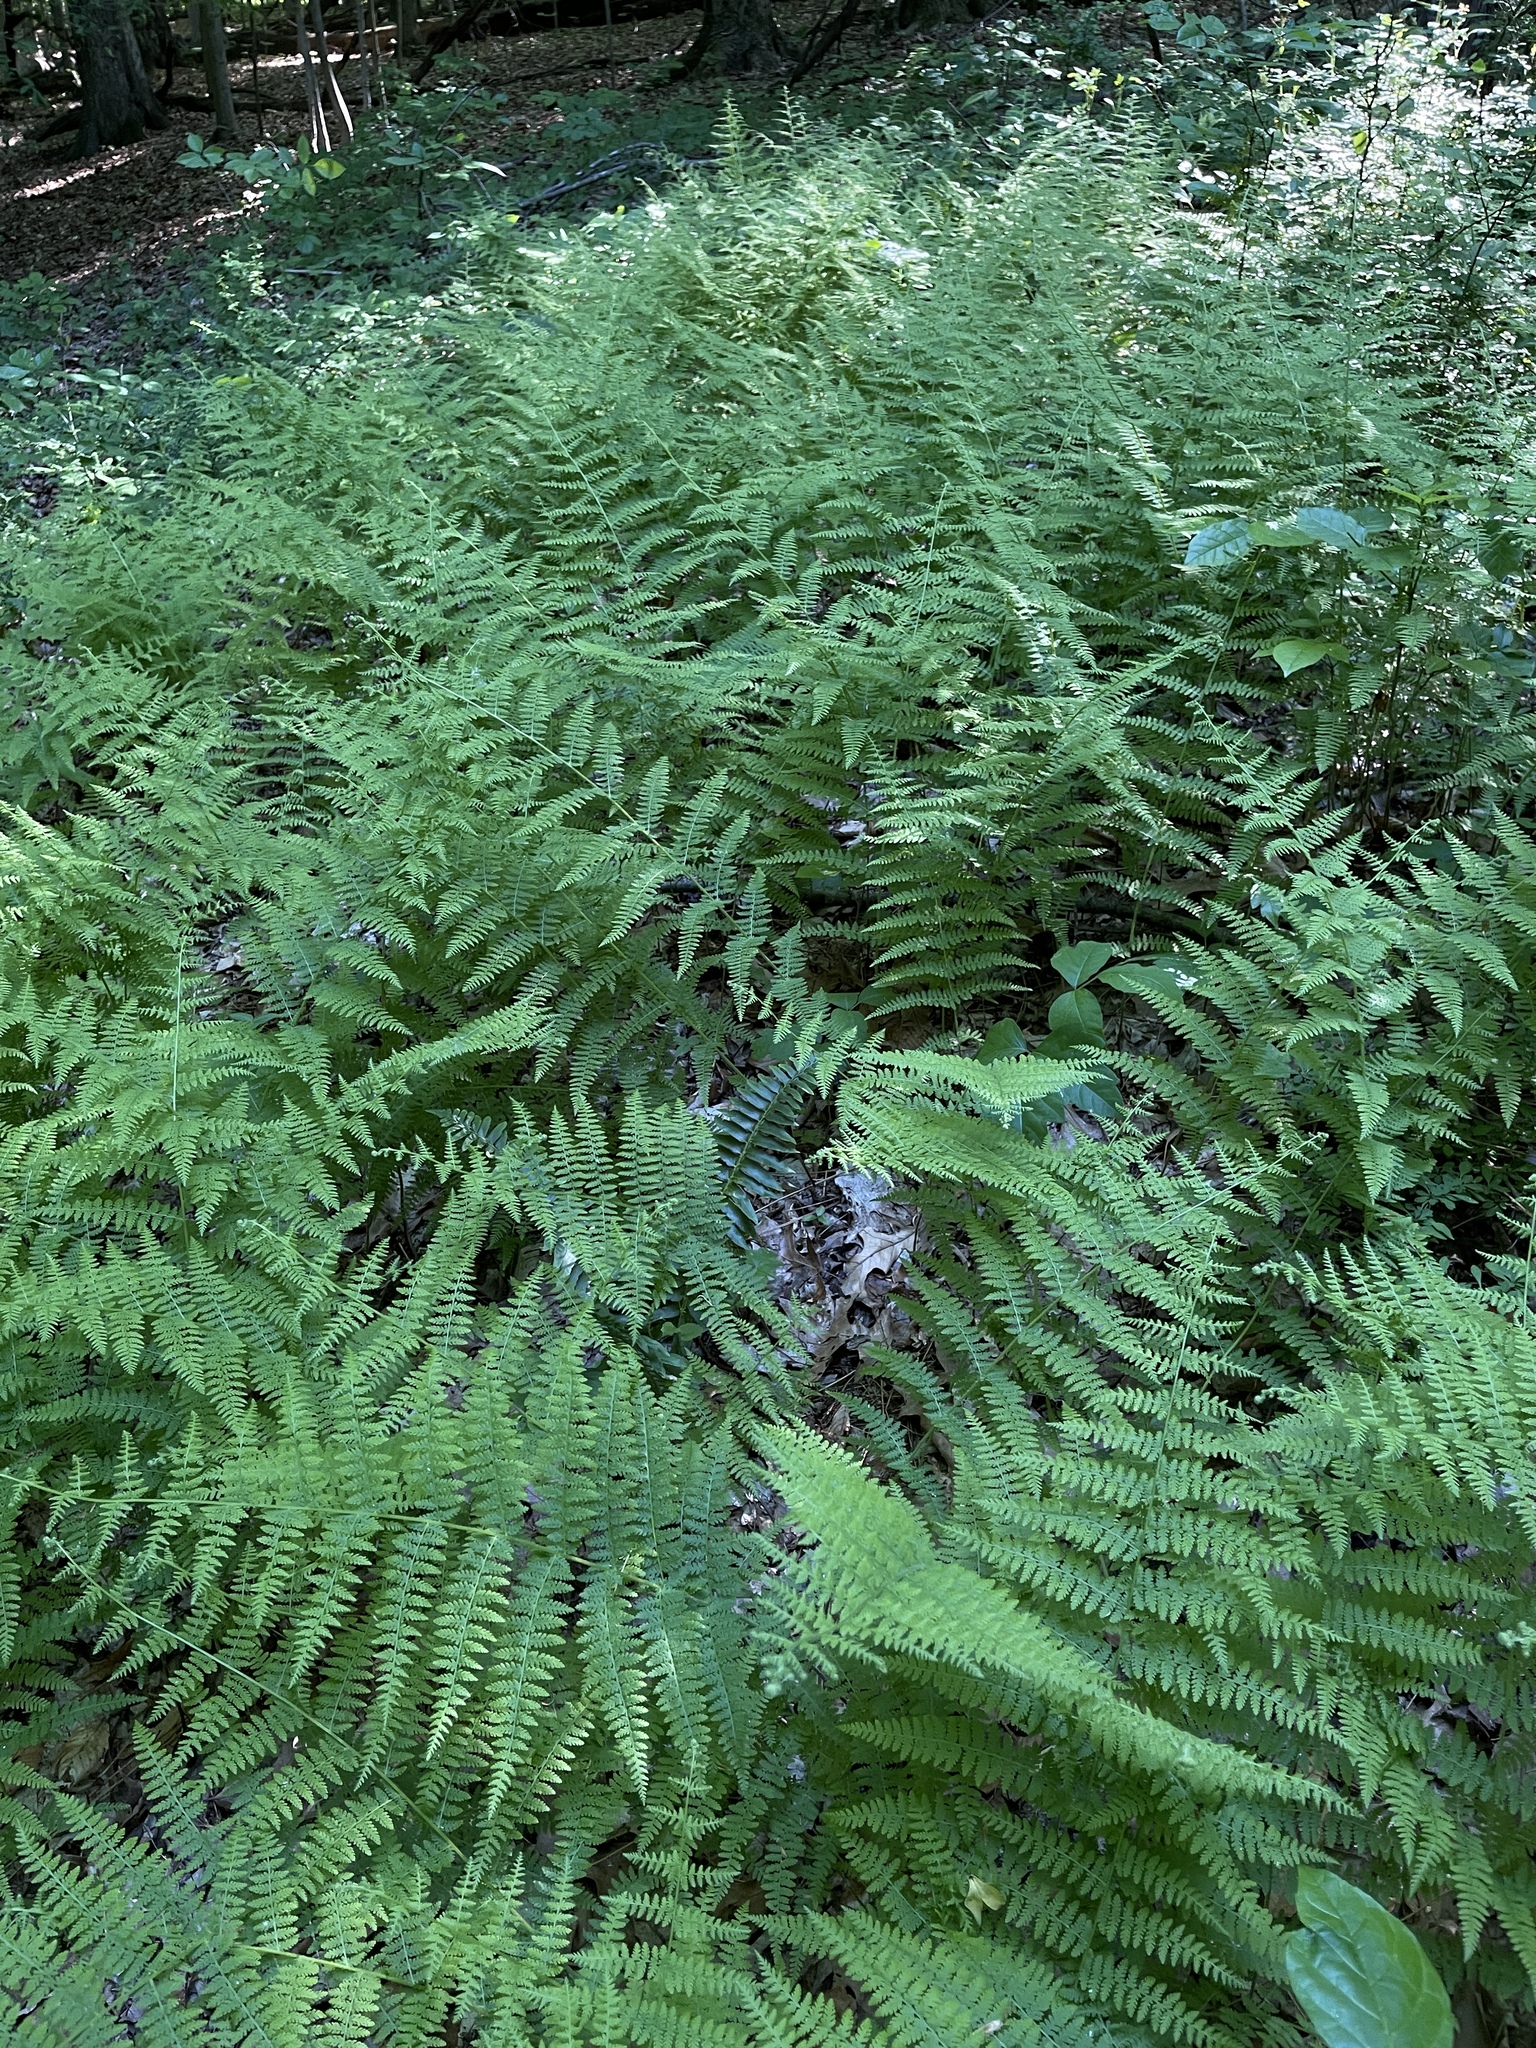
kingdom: Plantae
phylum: Tracheophyta
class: Polypodiopsida
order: Polypodiales
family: Dennstaedtiaceae
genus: Sitobolium
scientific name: Sitobolium punctilobum
